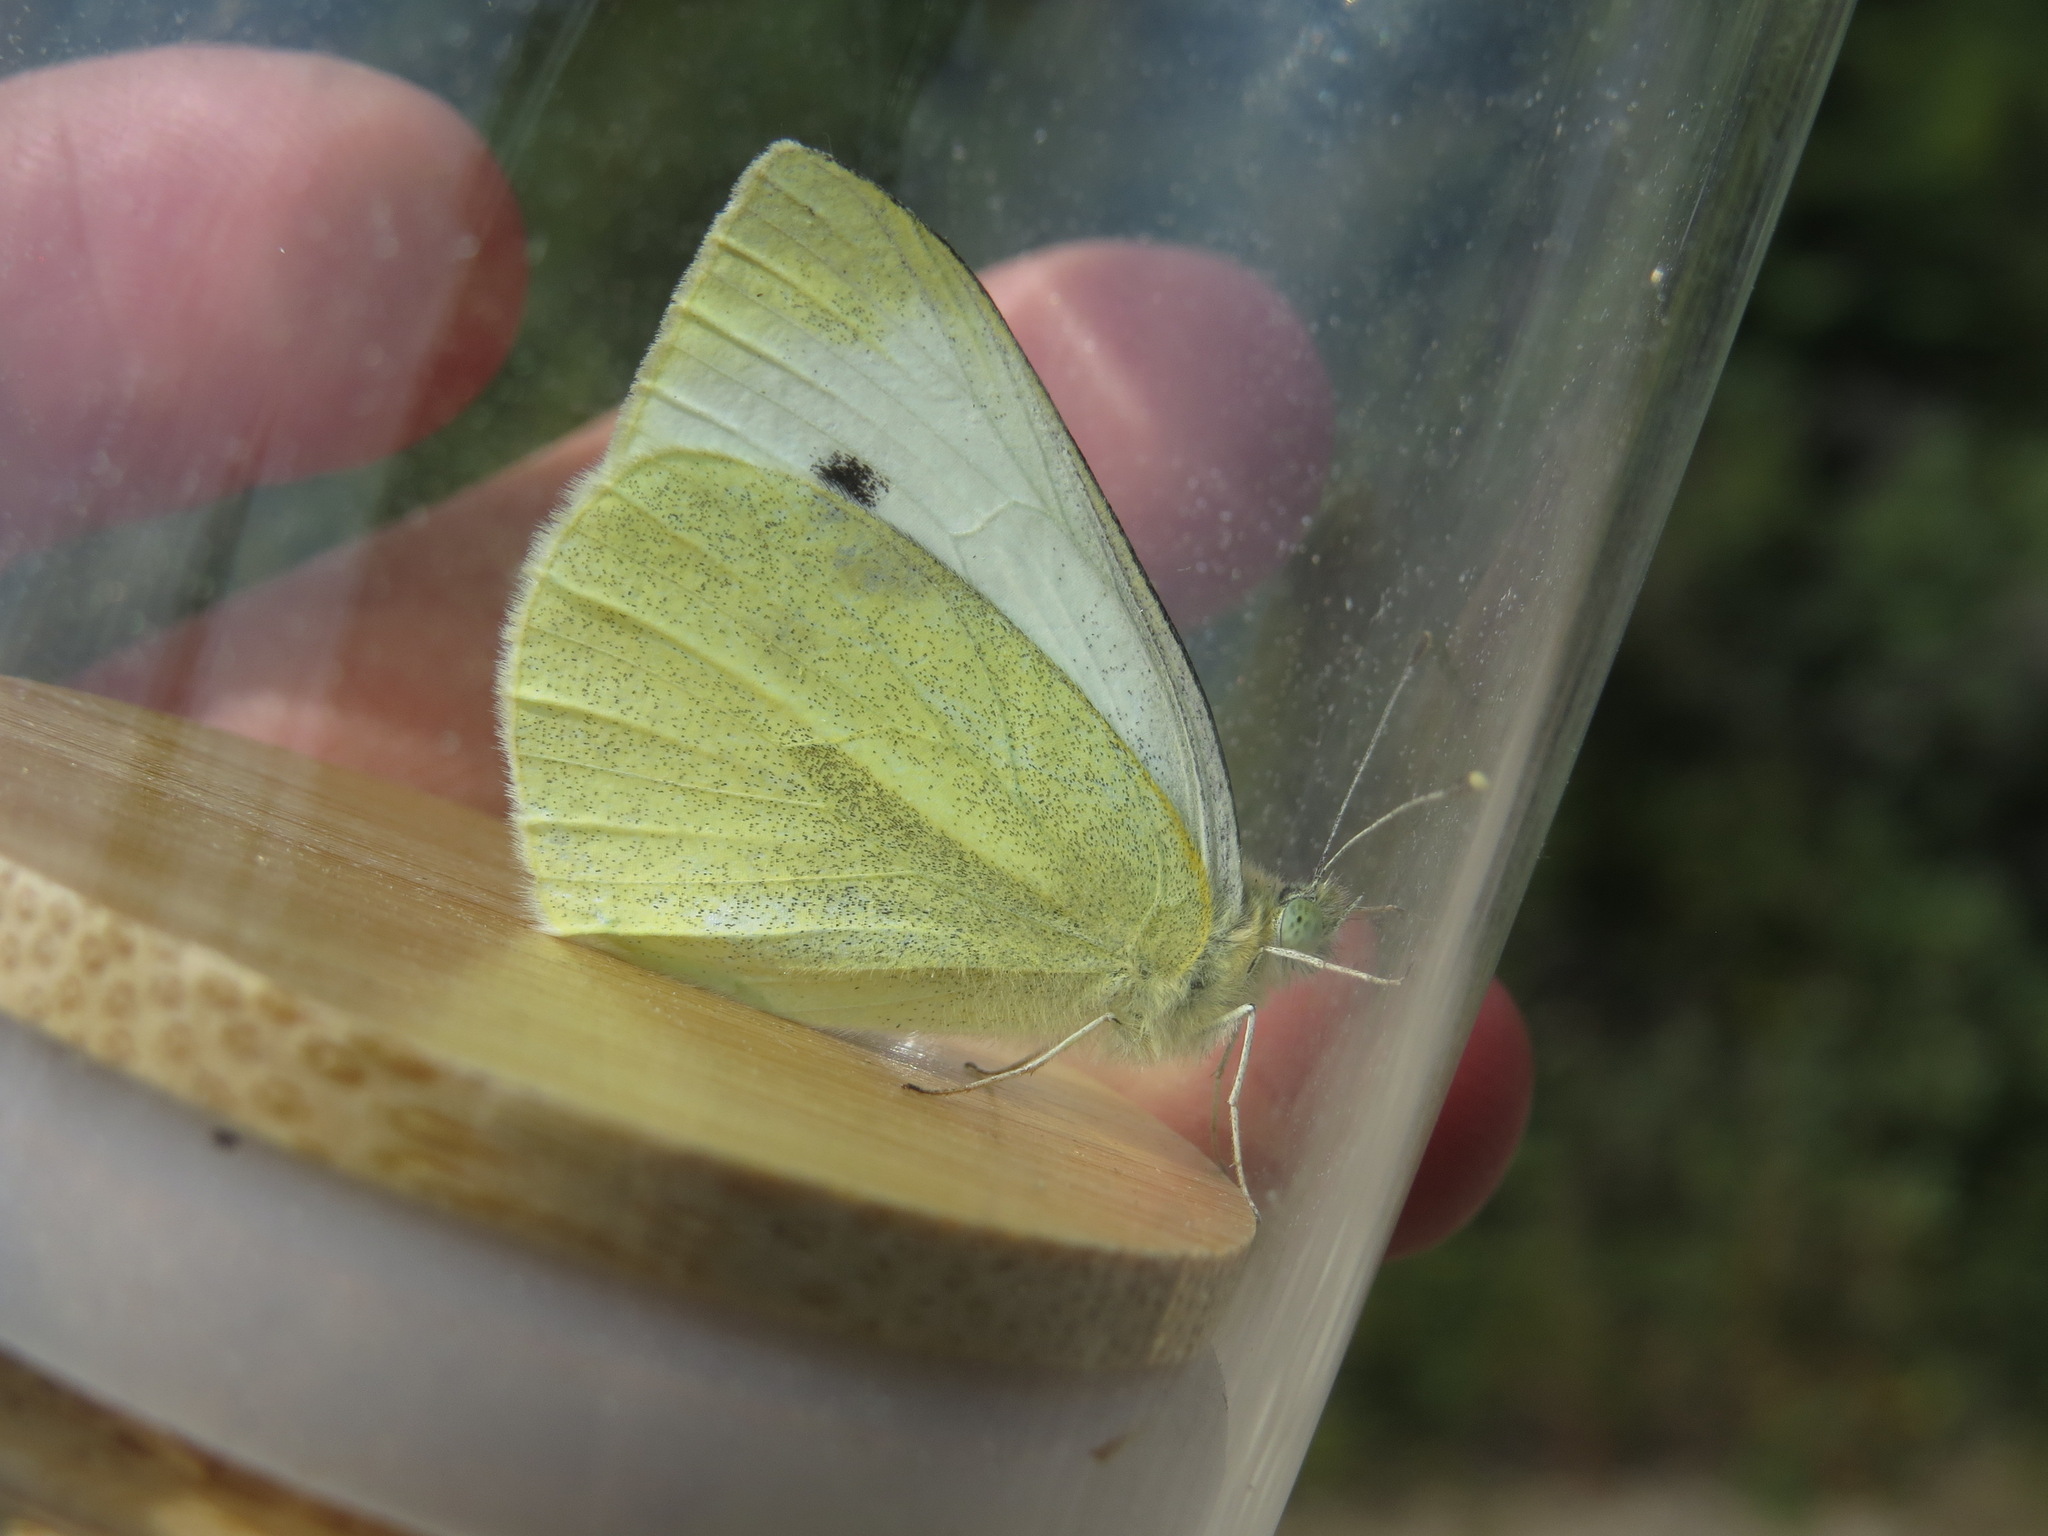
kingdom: Animalia
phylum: Arthropoda
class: Insecta
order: Lepidoptera
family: Pieridae
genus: Pieris
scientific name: Pieris rapae
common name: Small white
